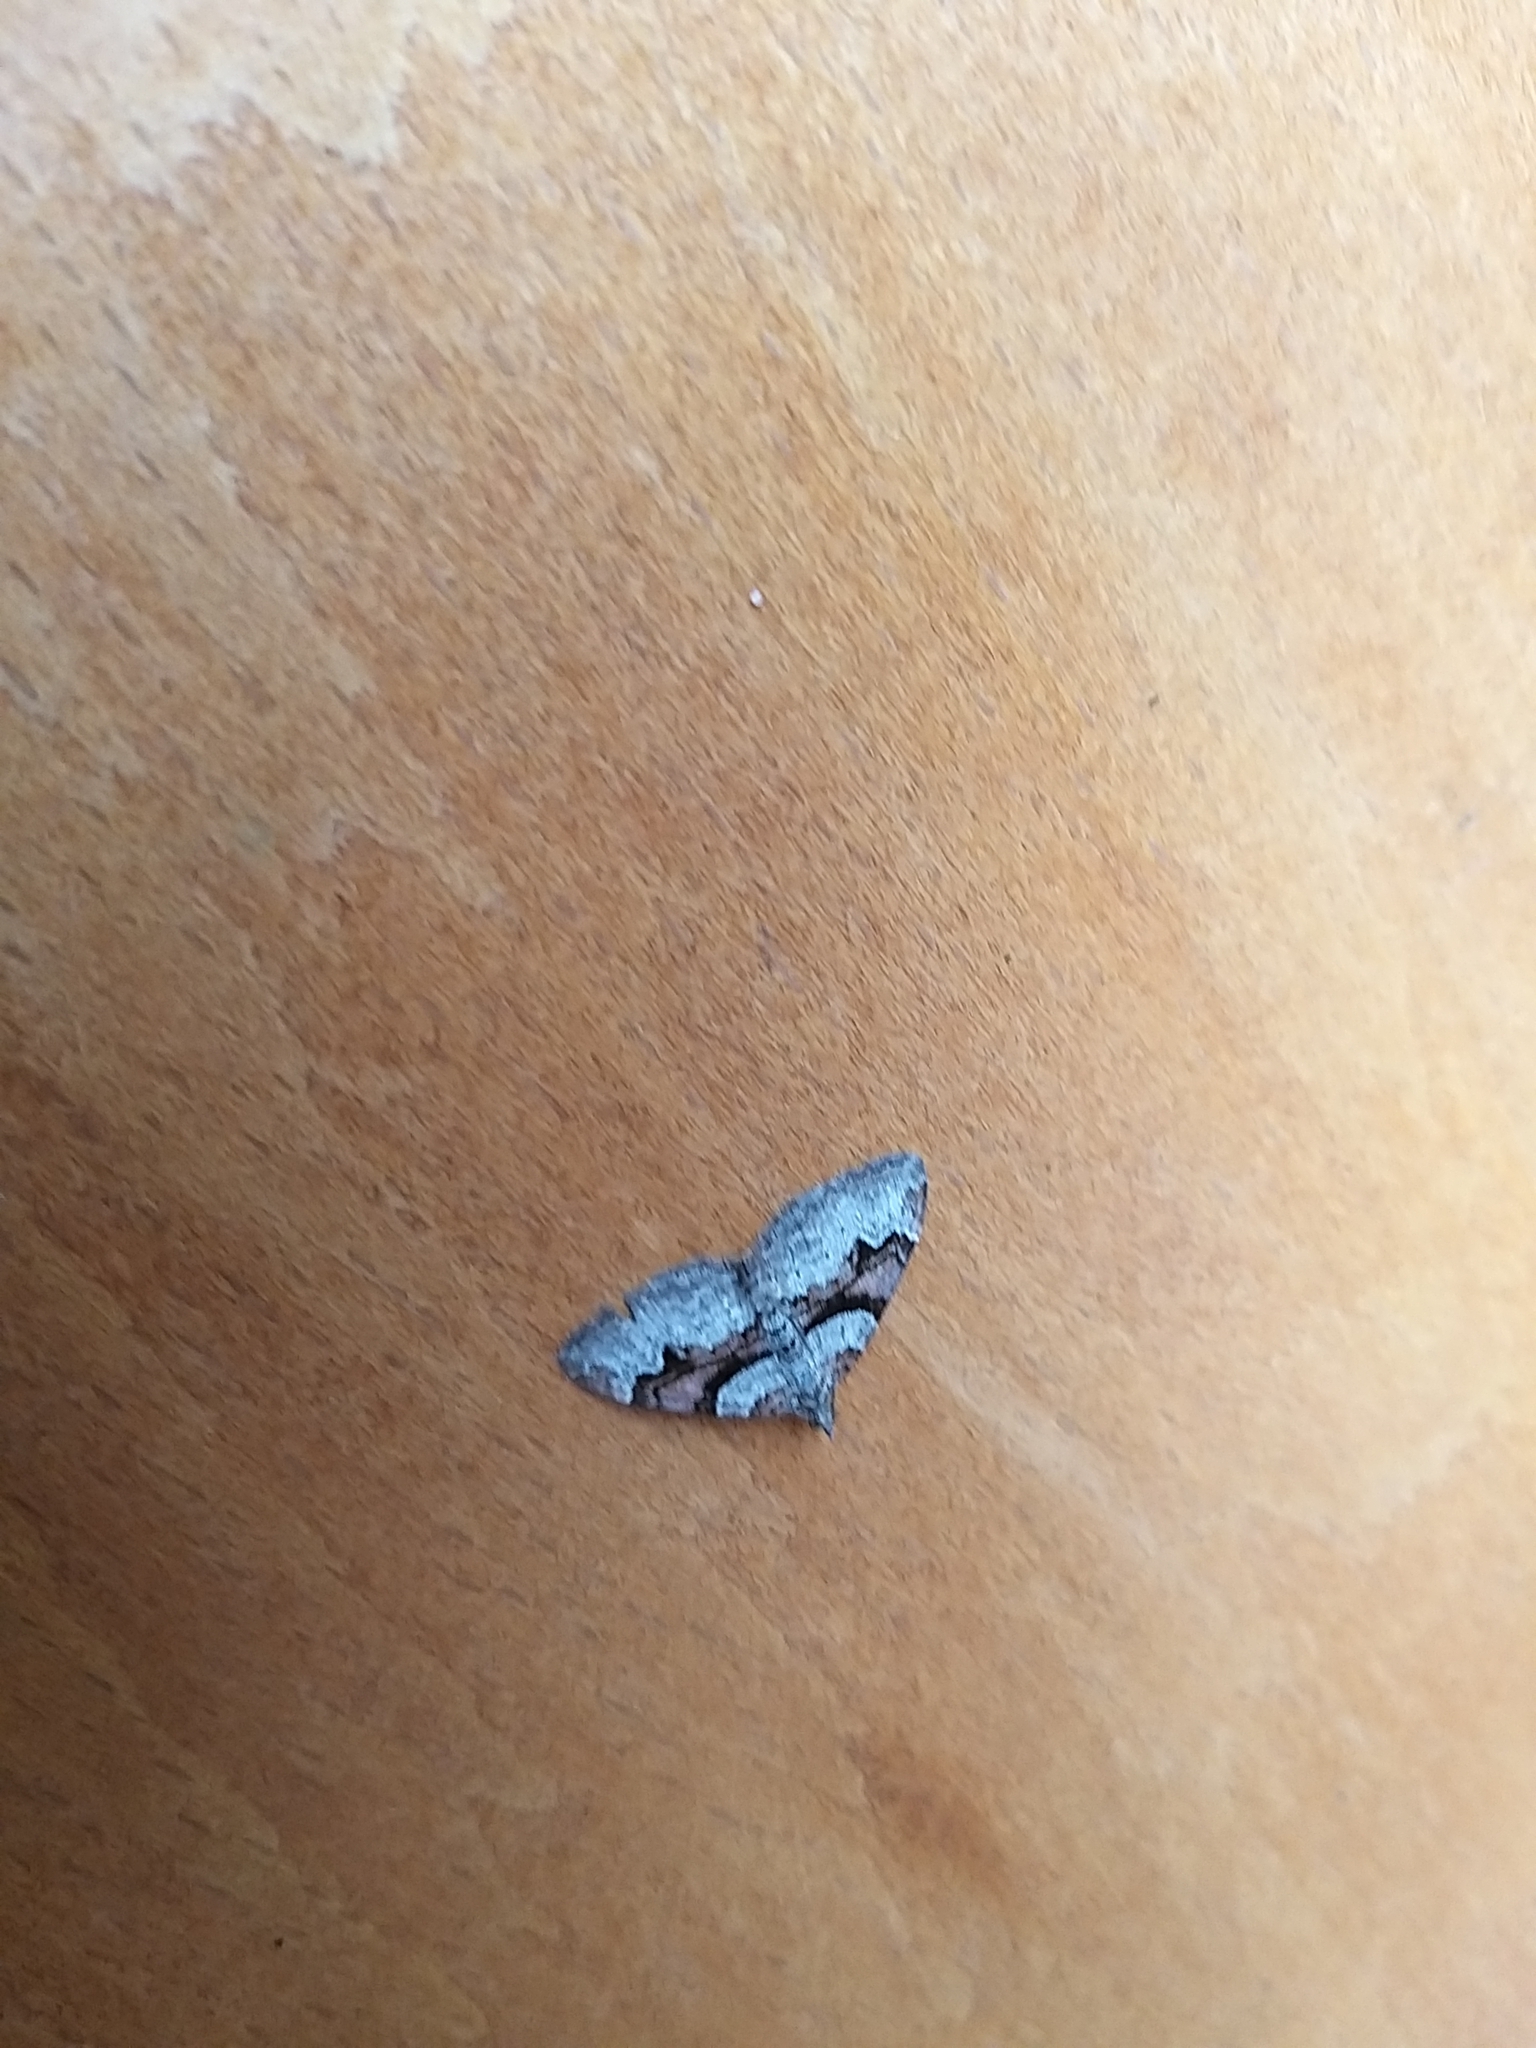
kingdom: Animalia
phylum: Arthropoda
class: Insecta
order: Lepidoptera
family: Geometridae
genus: Xanthorhoe
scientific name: Xanthorhoe designata
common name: Flame carpet
